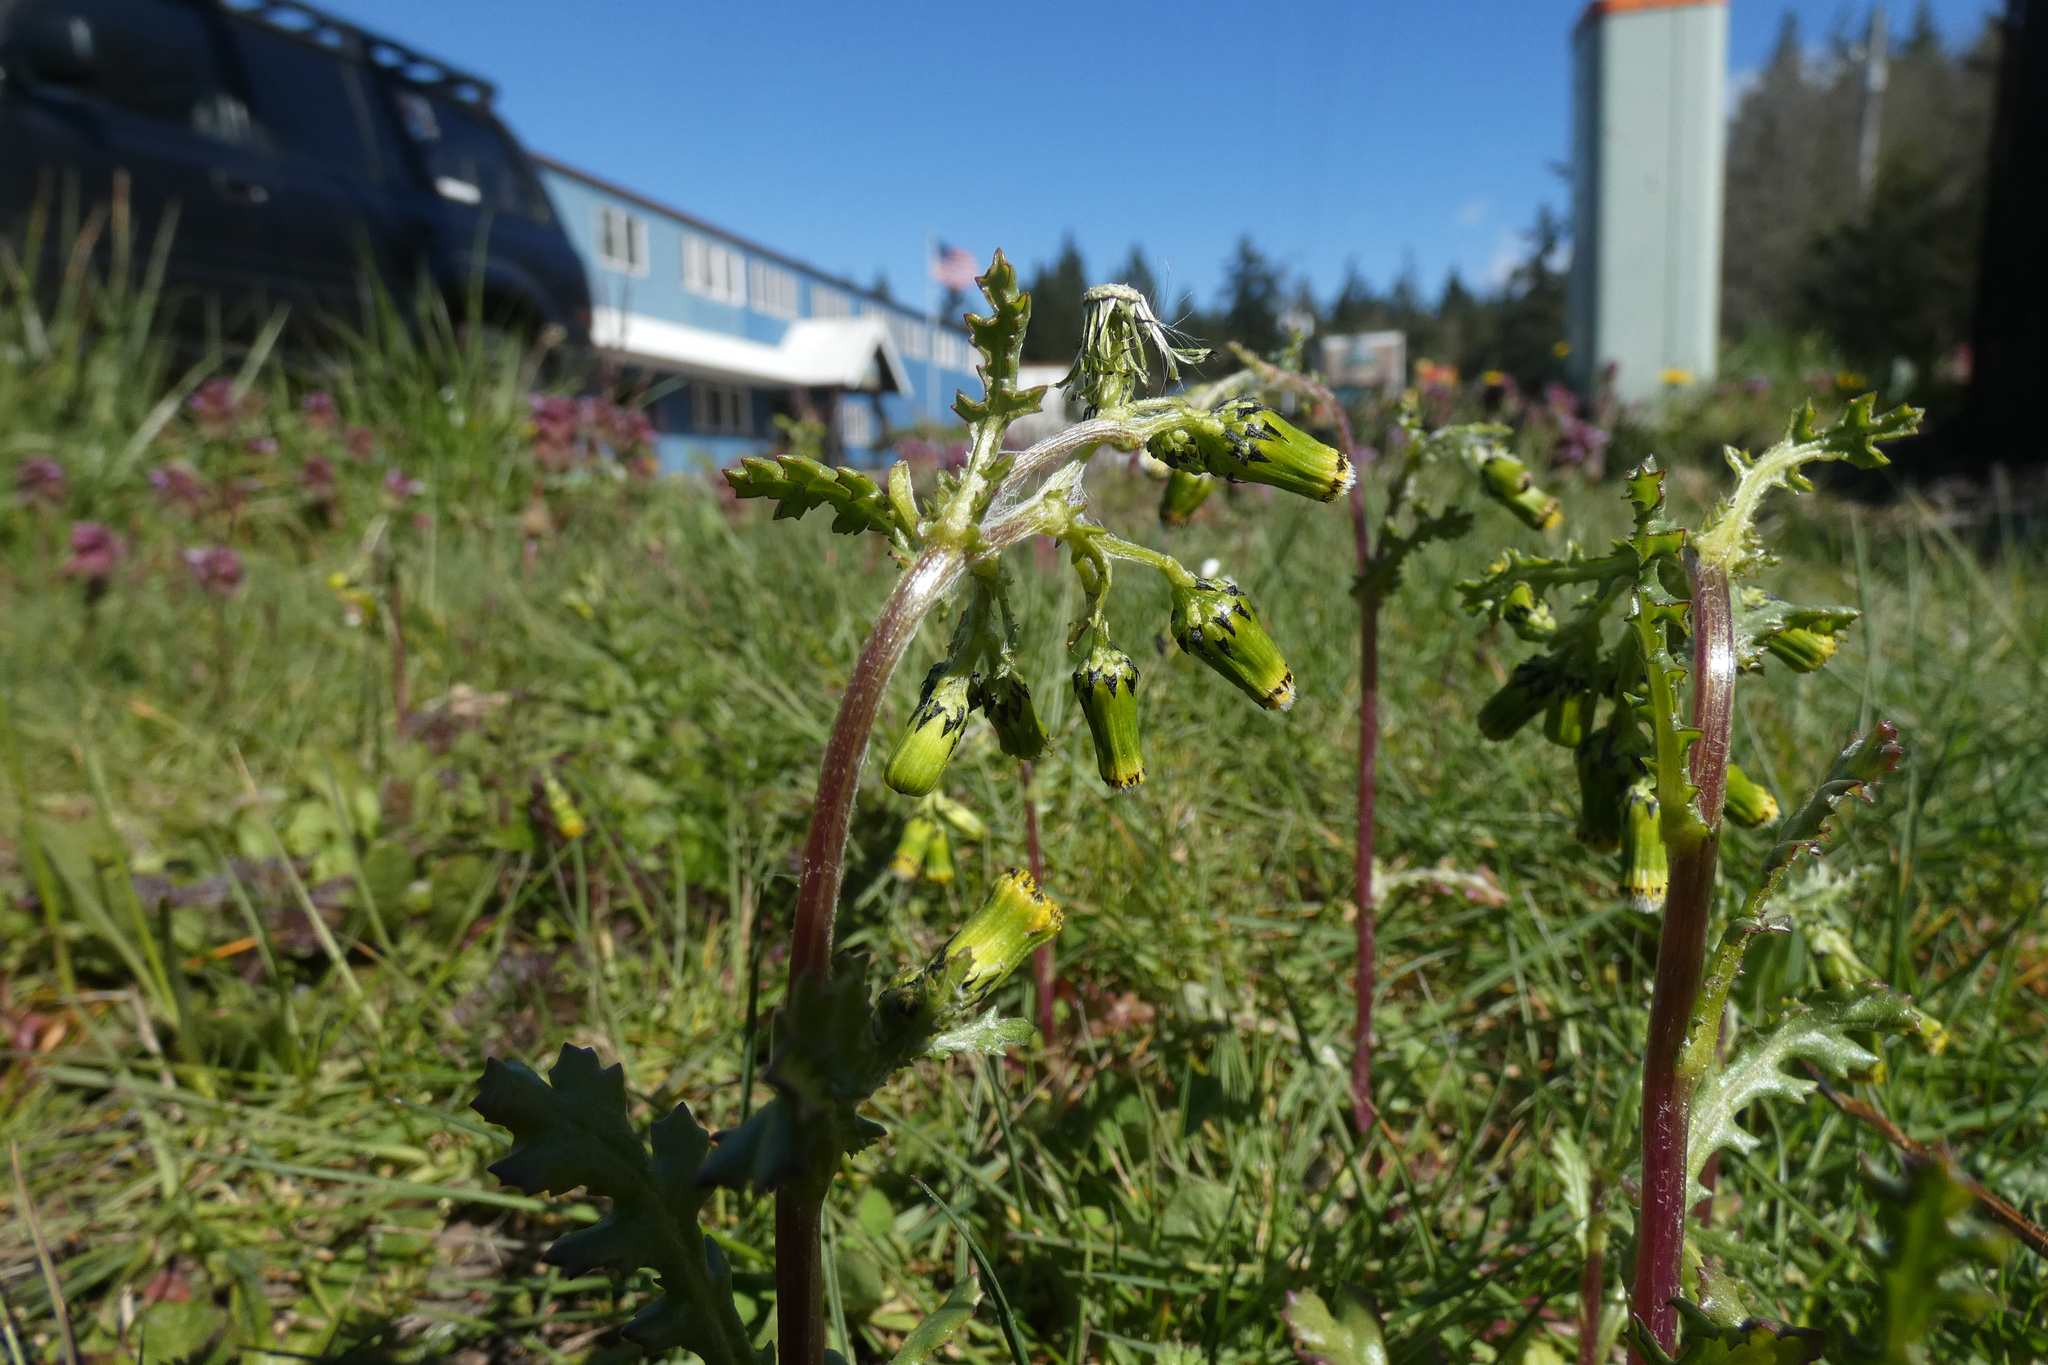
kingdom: Plantae
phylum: Tracheophyta
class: Magnoliopsida
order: Asterales
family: Asteraceae
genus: Senecio
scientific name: Senecio vulgaris
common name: Old-man-in-the-spring
